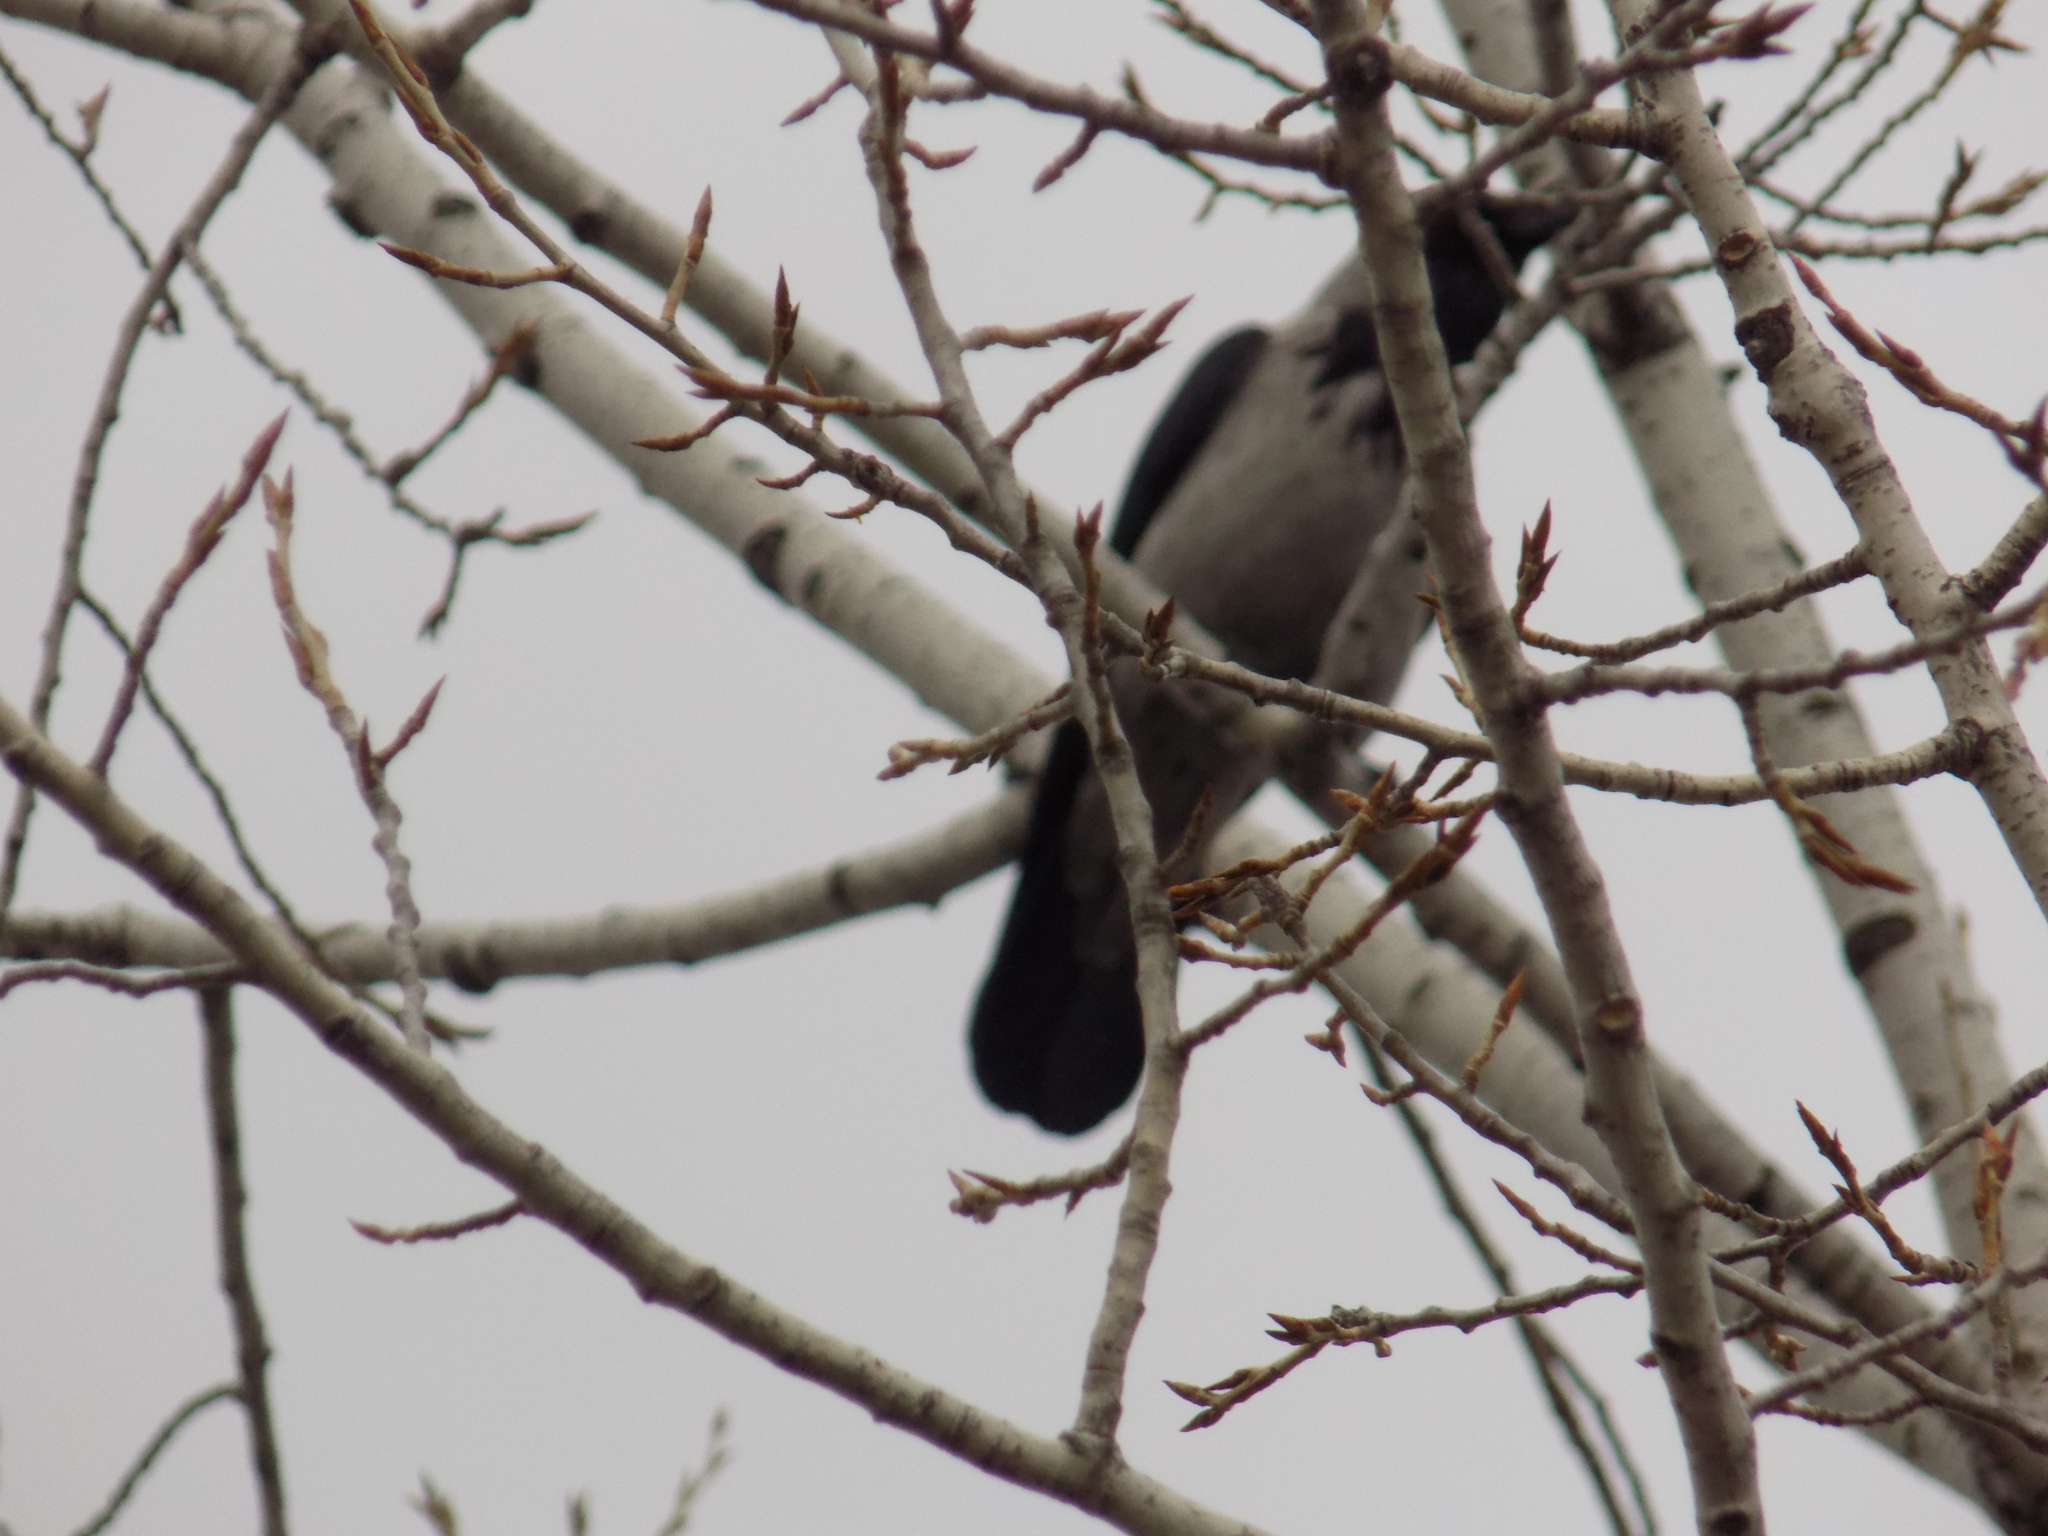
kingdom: Animalia
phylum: Chordata
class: Aves
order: Passeriformes
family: Corvidae
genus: Corvus
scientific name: Corvus cornix
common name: Hooded crow
